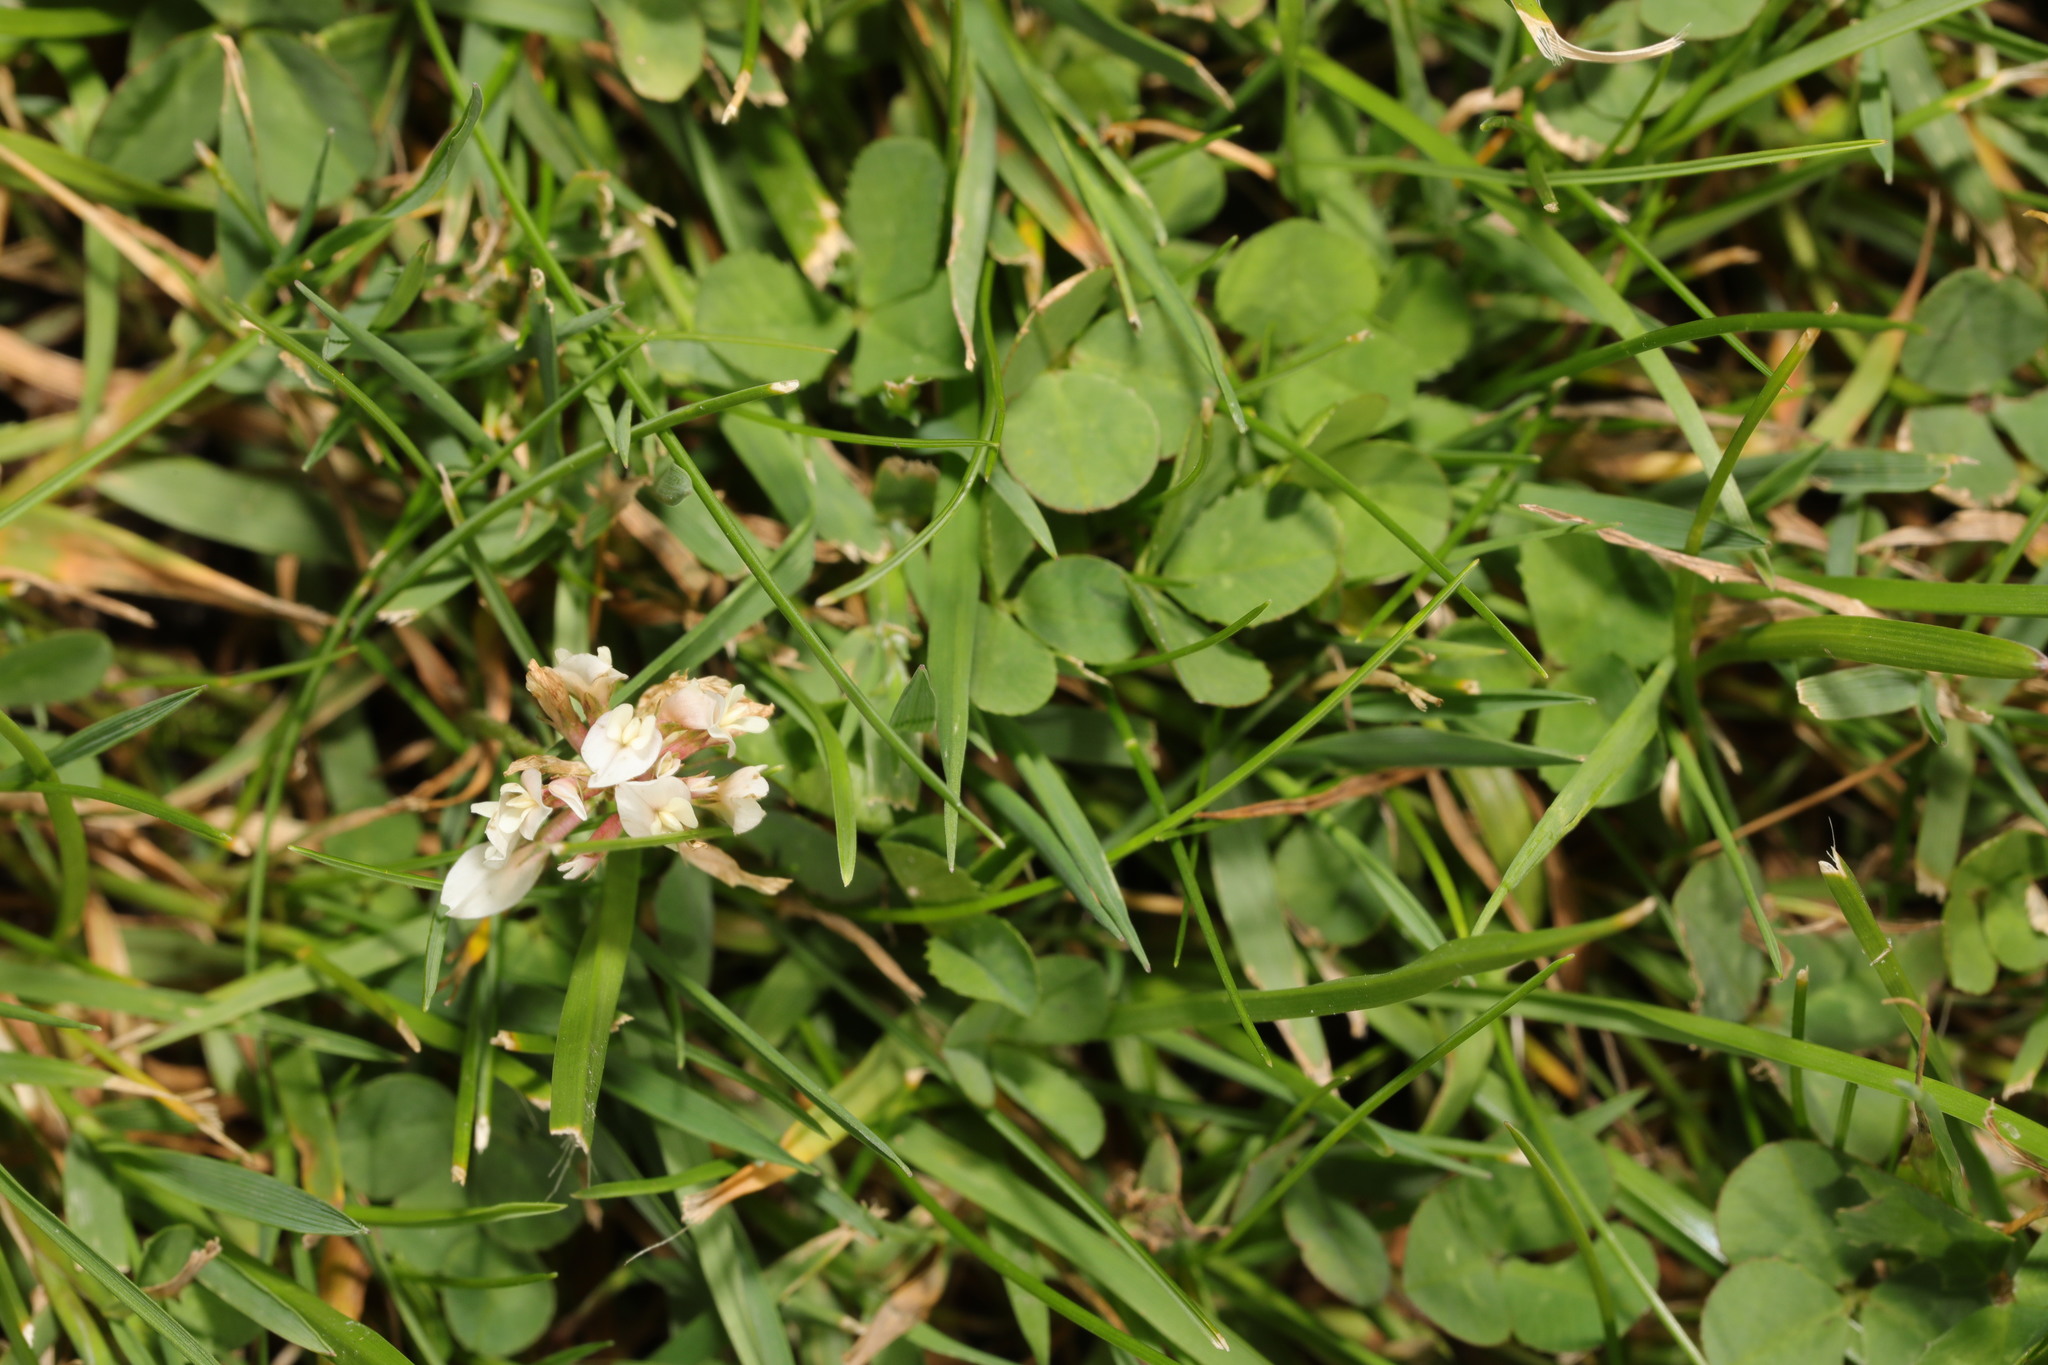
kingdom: Plantae
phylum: Tracheophyta
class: Magnoliopsida
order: Fabales
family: Fabaceae
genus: Trifolium
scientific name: Trifolium repens
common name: White clover
